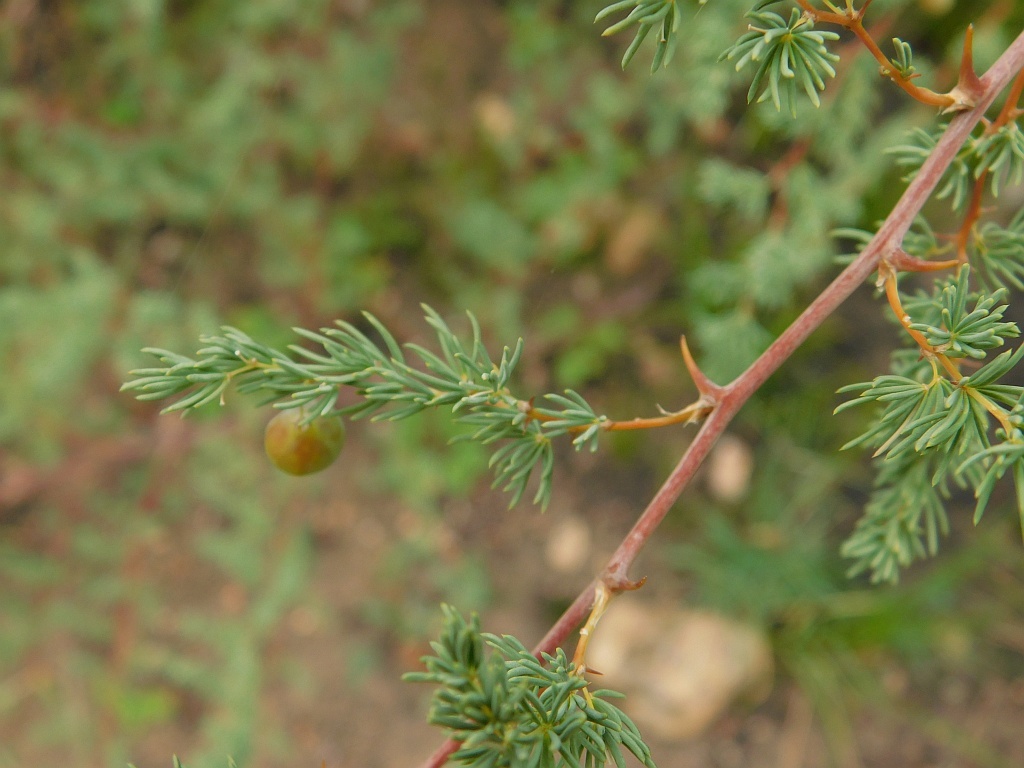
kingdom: Plantae
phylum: Tracheophyta
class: Liliopsida
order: Asparagales
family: Asparagaceae
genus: Asparagus
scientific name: Asparagus rubicundus
